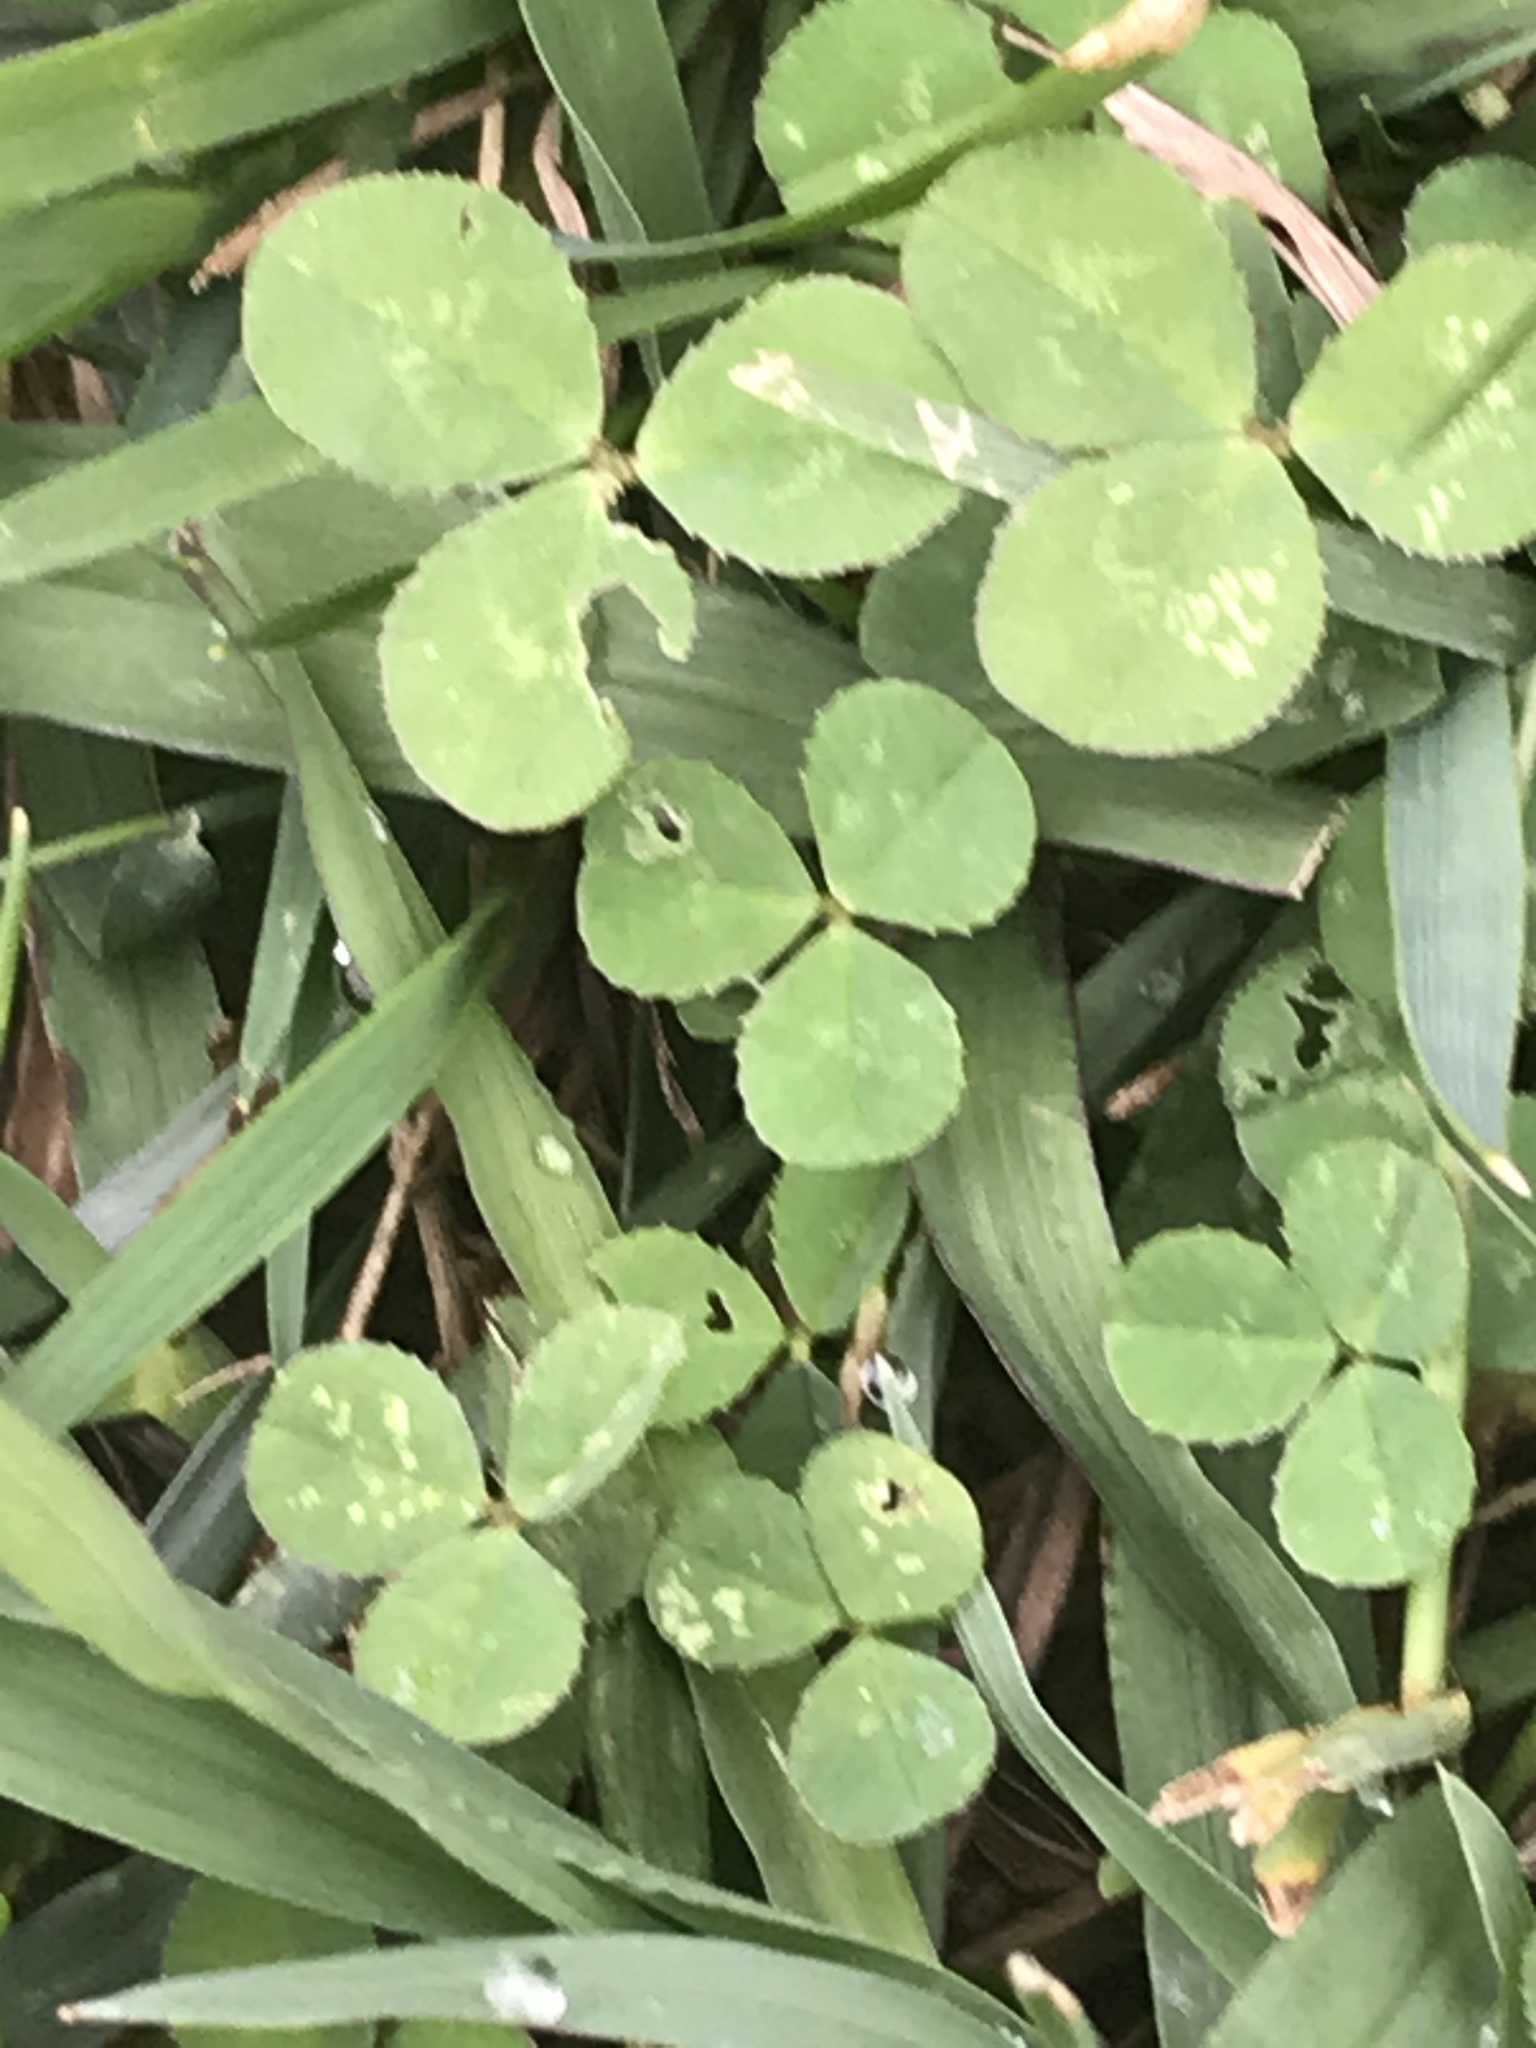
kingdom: Plantae
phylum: Tracheophyta
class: Magnoliopsida
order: Fabales
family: Fabaceae
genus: Trifolium
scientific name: Trifolium repens
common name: White clover
